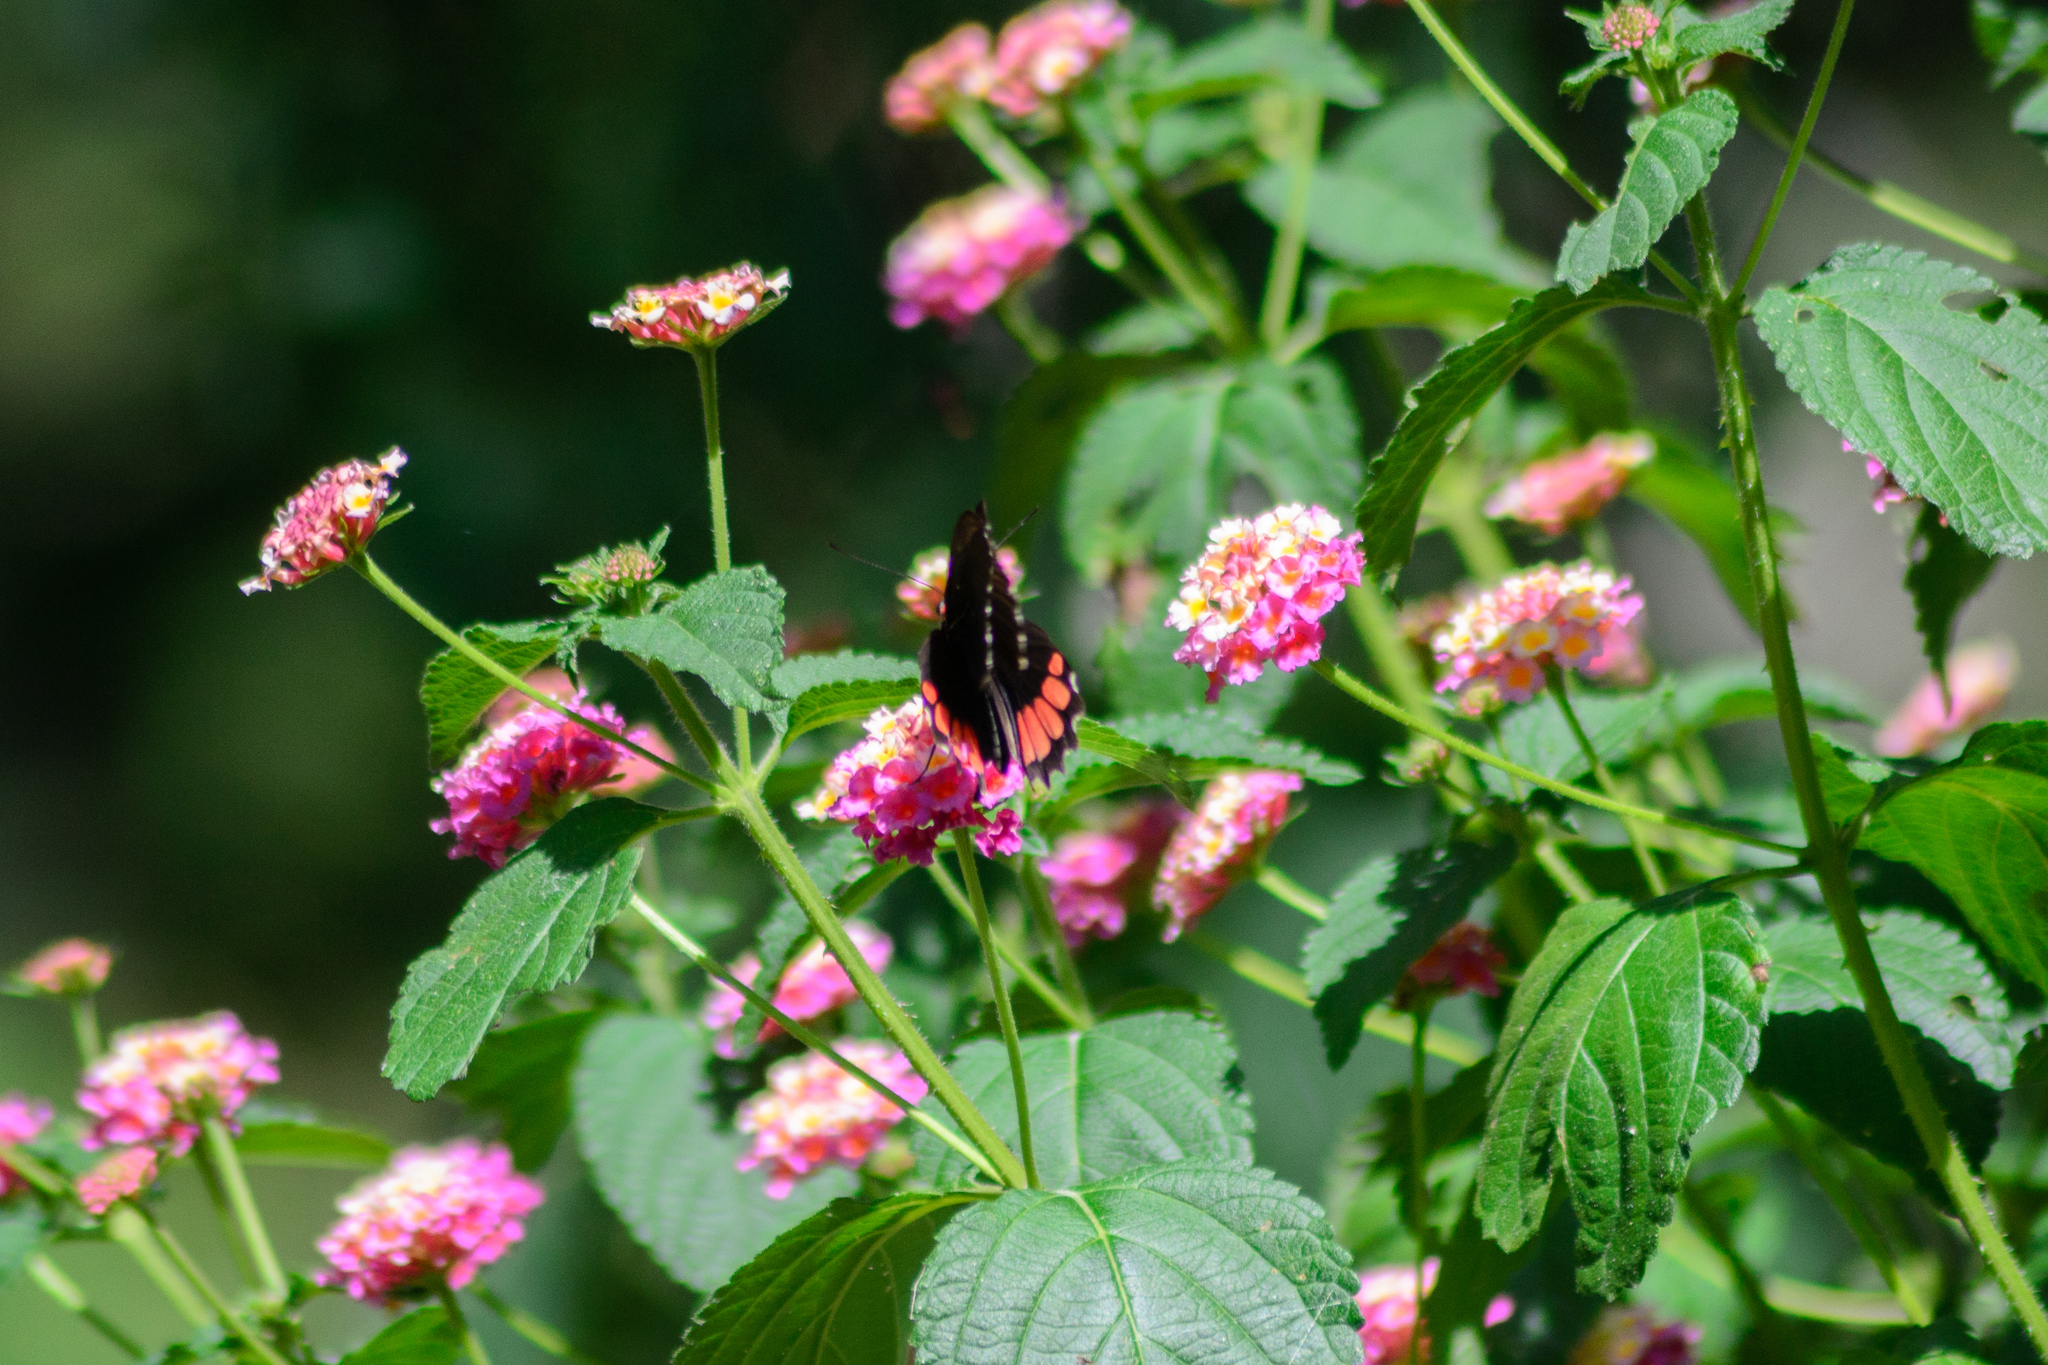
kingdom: Animalia
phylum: Arthropoda
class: Insecta
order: Lepidoptera
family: Papilionidae
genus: Parides
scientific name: Parides erithalion
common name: Variable cattleheart
